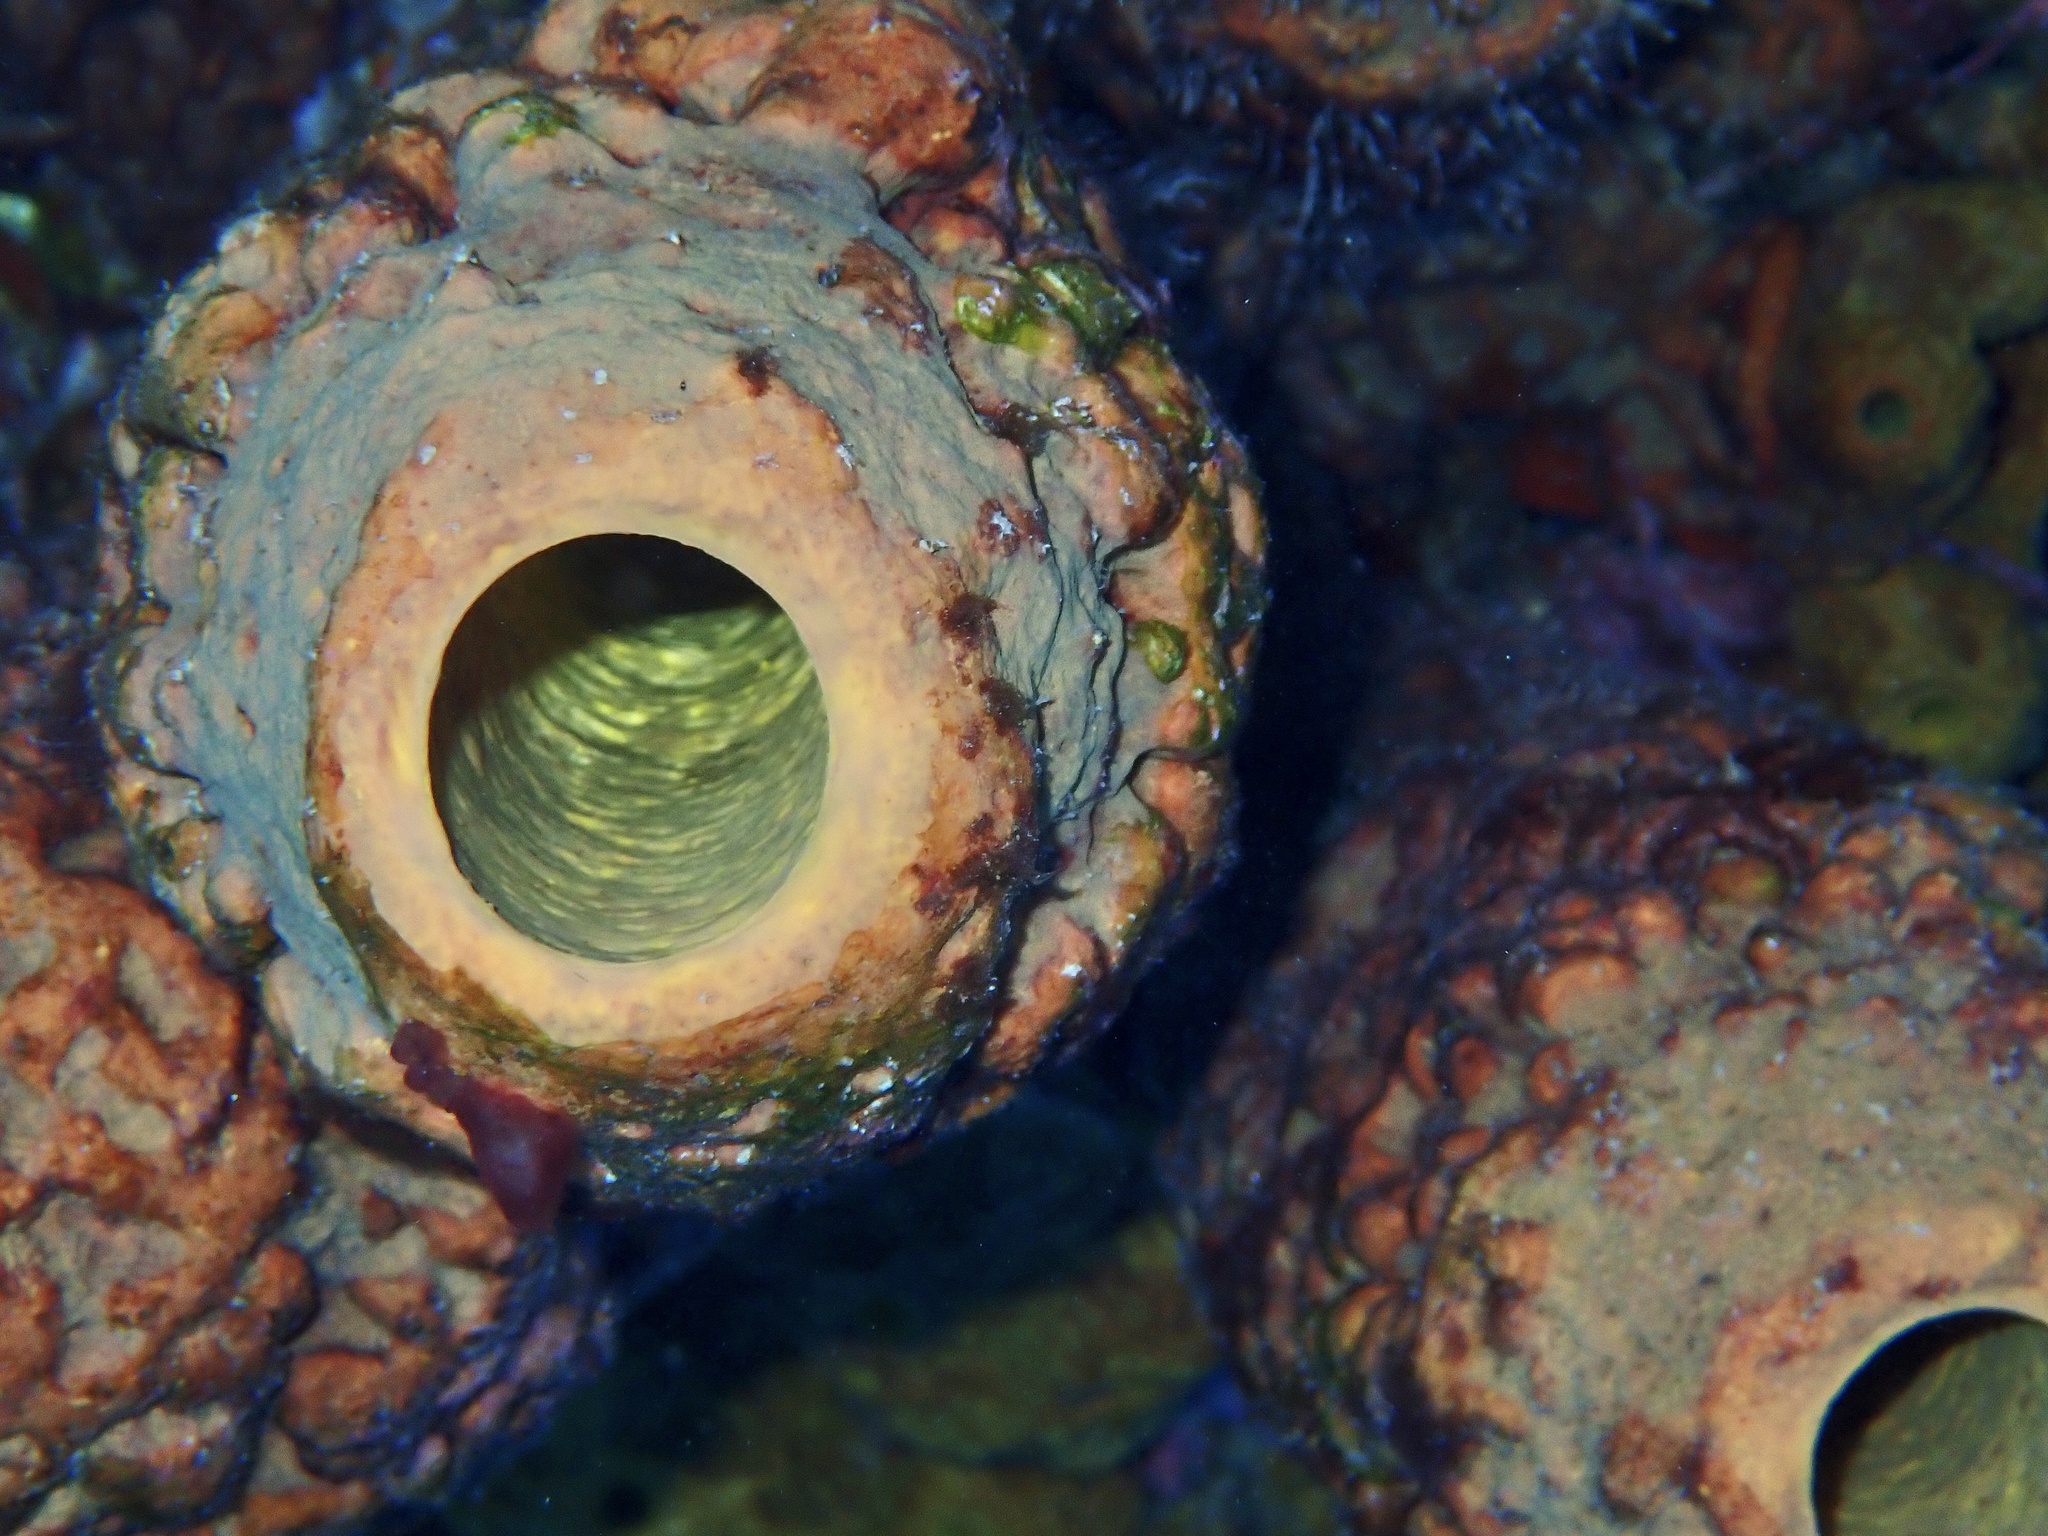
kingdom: Animalia
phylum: Porifera
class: Demospongiae
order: Verongiida
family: Aplysinidae
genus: Aplysina
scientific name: Aplysina archeri
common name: Stove-pipe sponge
